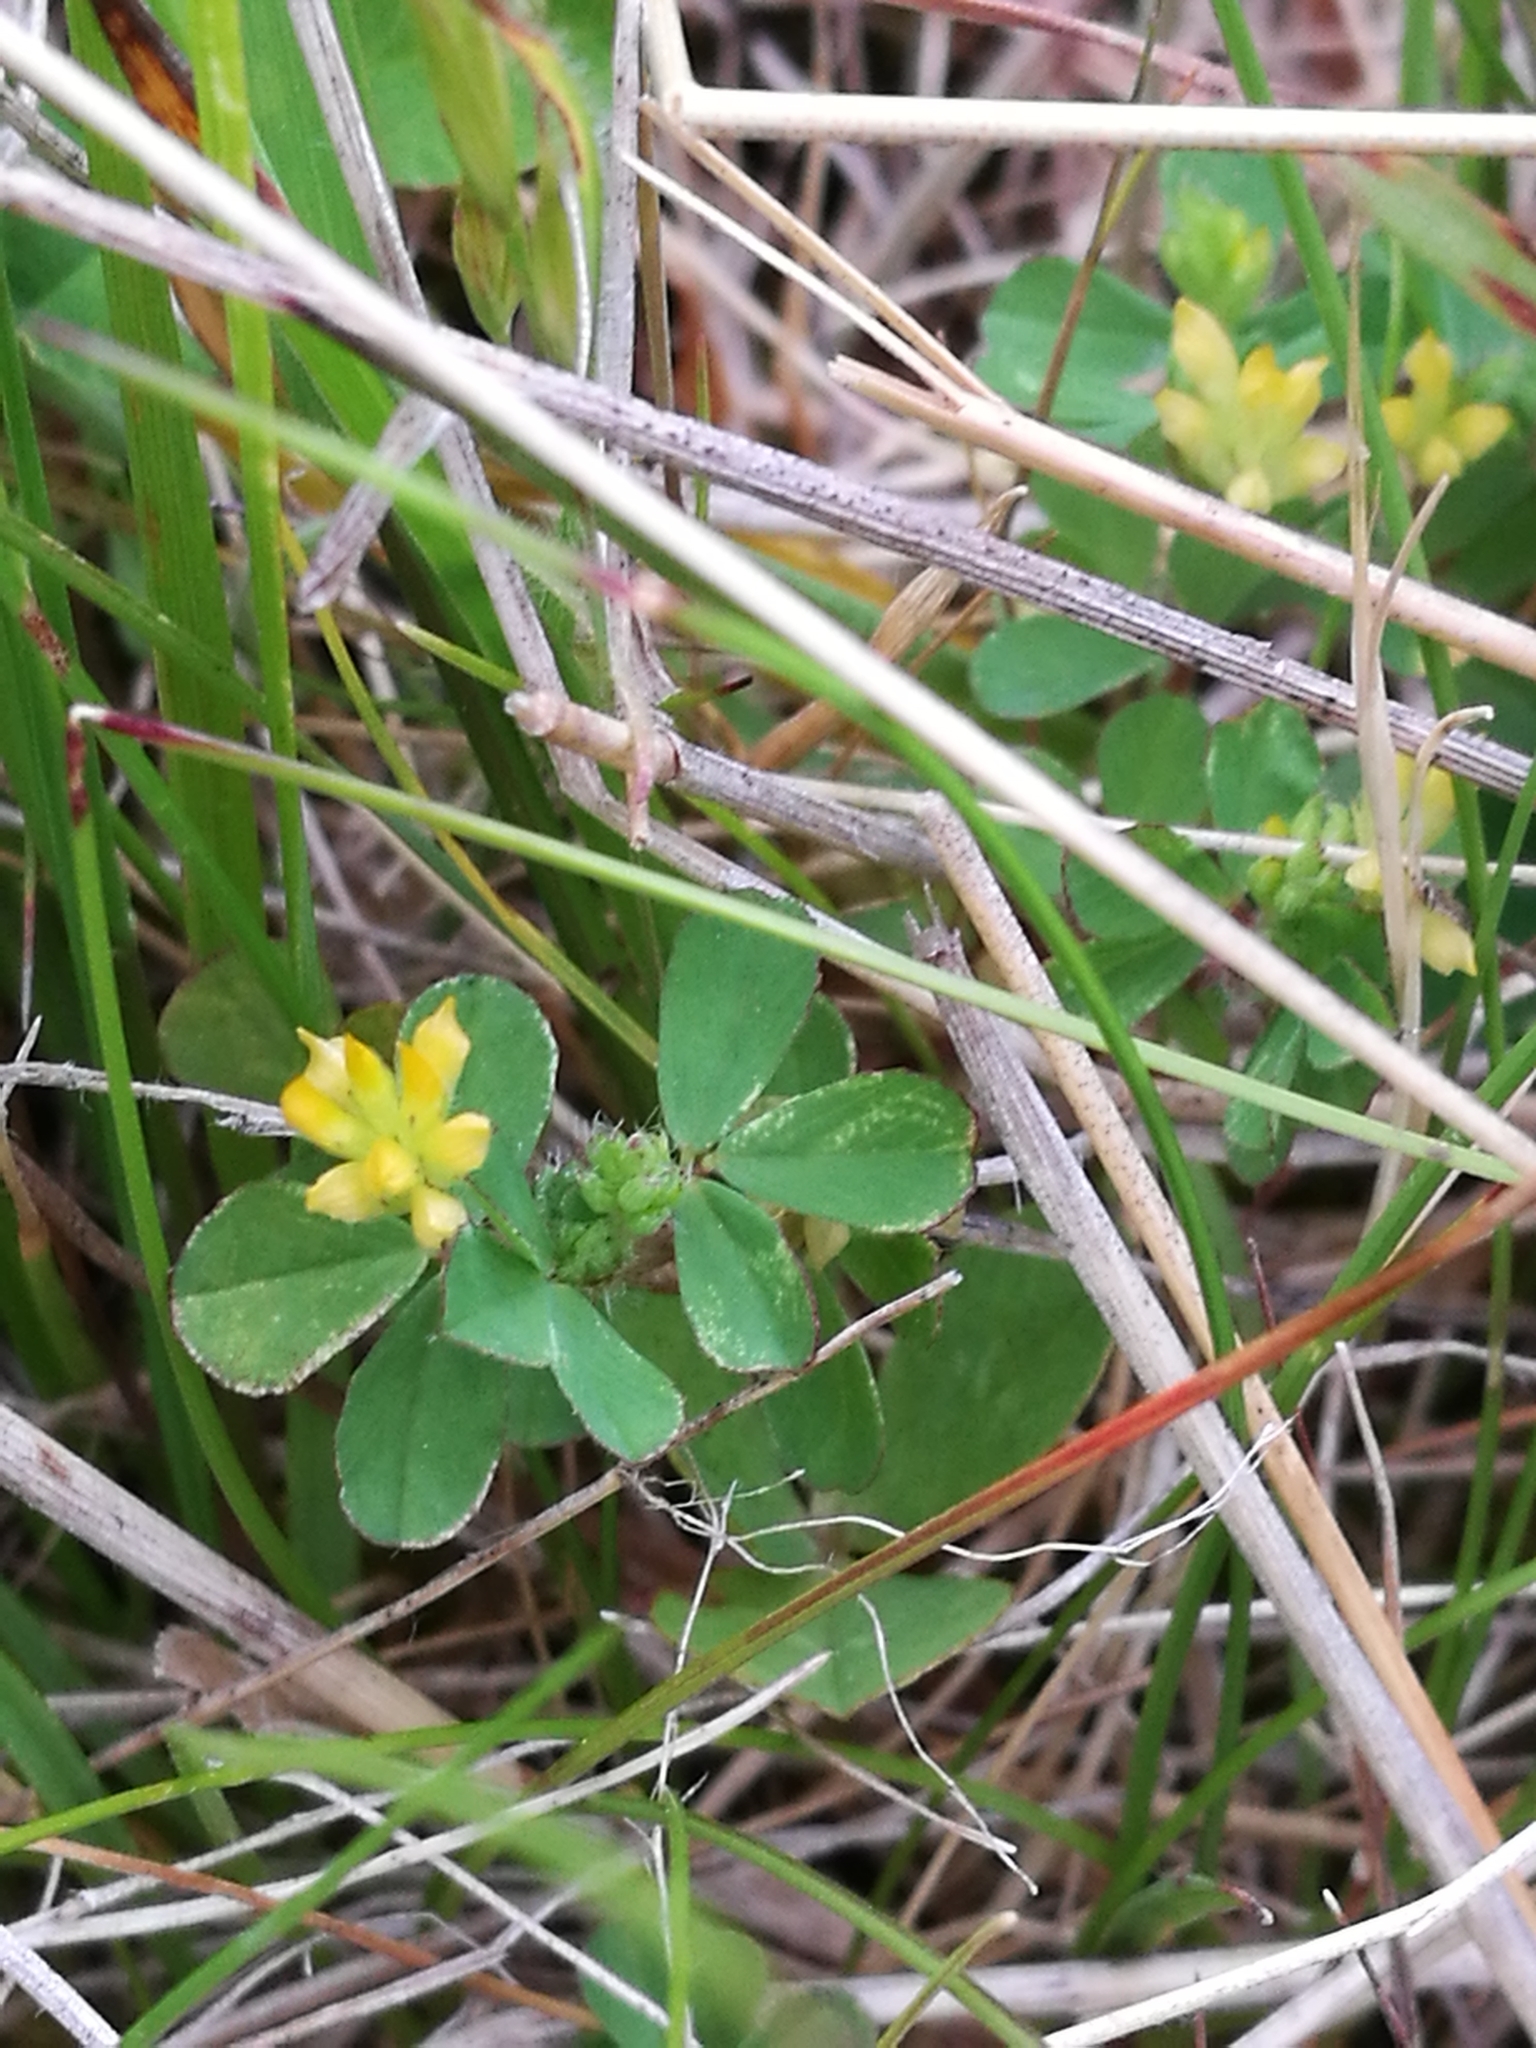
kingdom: Plantae
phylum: Tracheophyta
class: Magnoliopsida
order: Fabales
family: Fabaceae
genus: Trifolium
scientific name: Trifolium dubium
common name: Suckling clover
